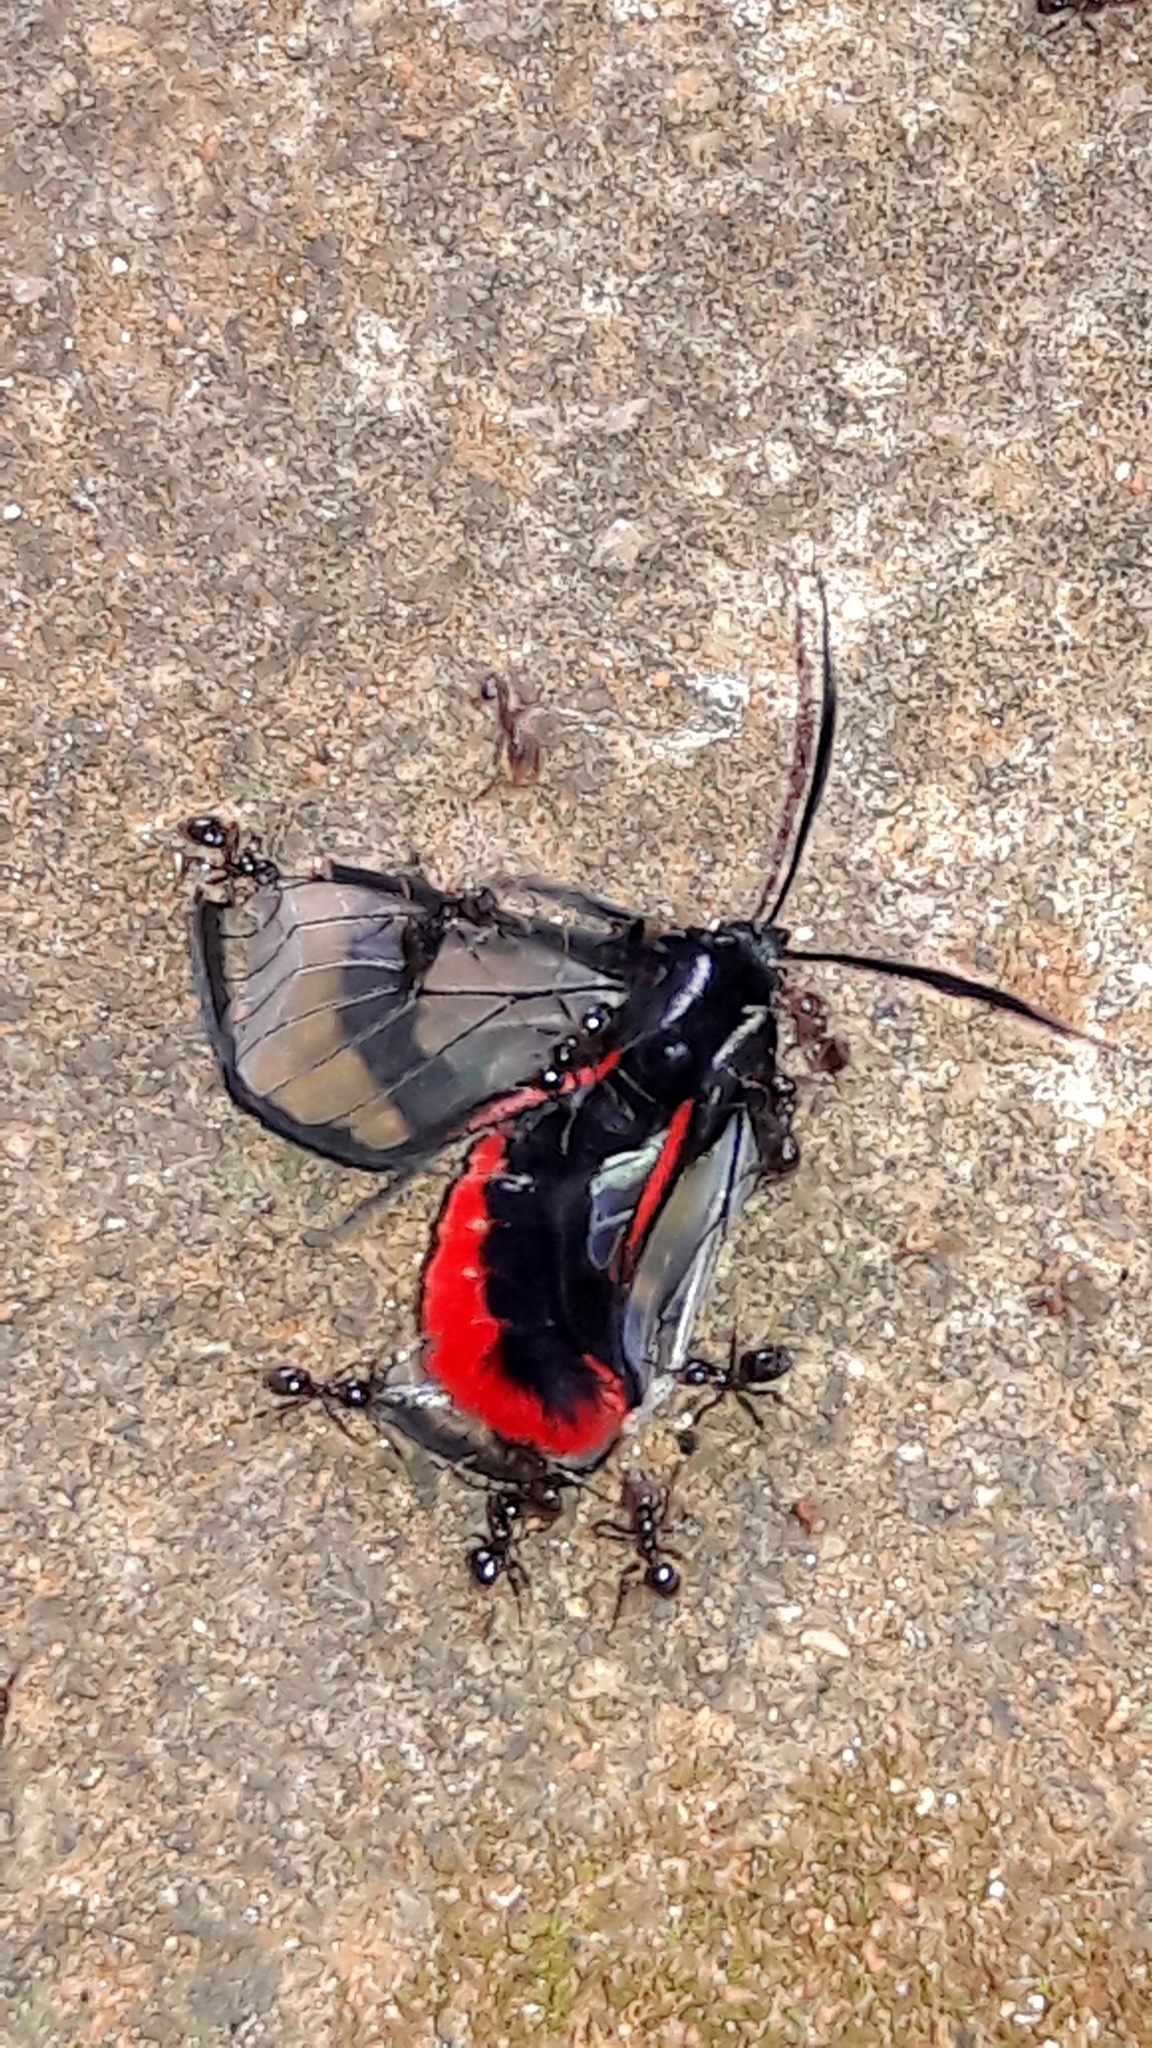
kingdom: Animalia
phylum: Arthropoda
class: Insecta
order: Lepidoptera
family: Erebidae
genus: Dinia
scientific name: Dinia mena
